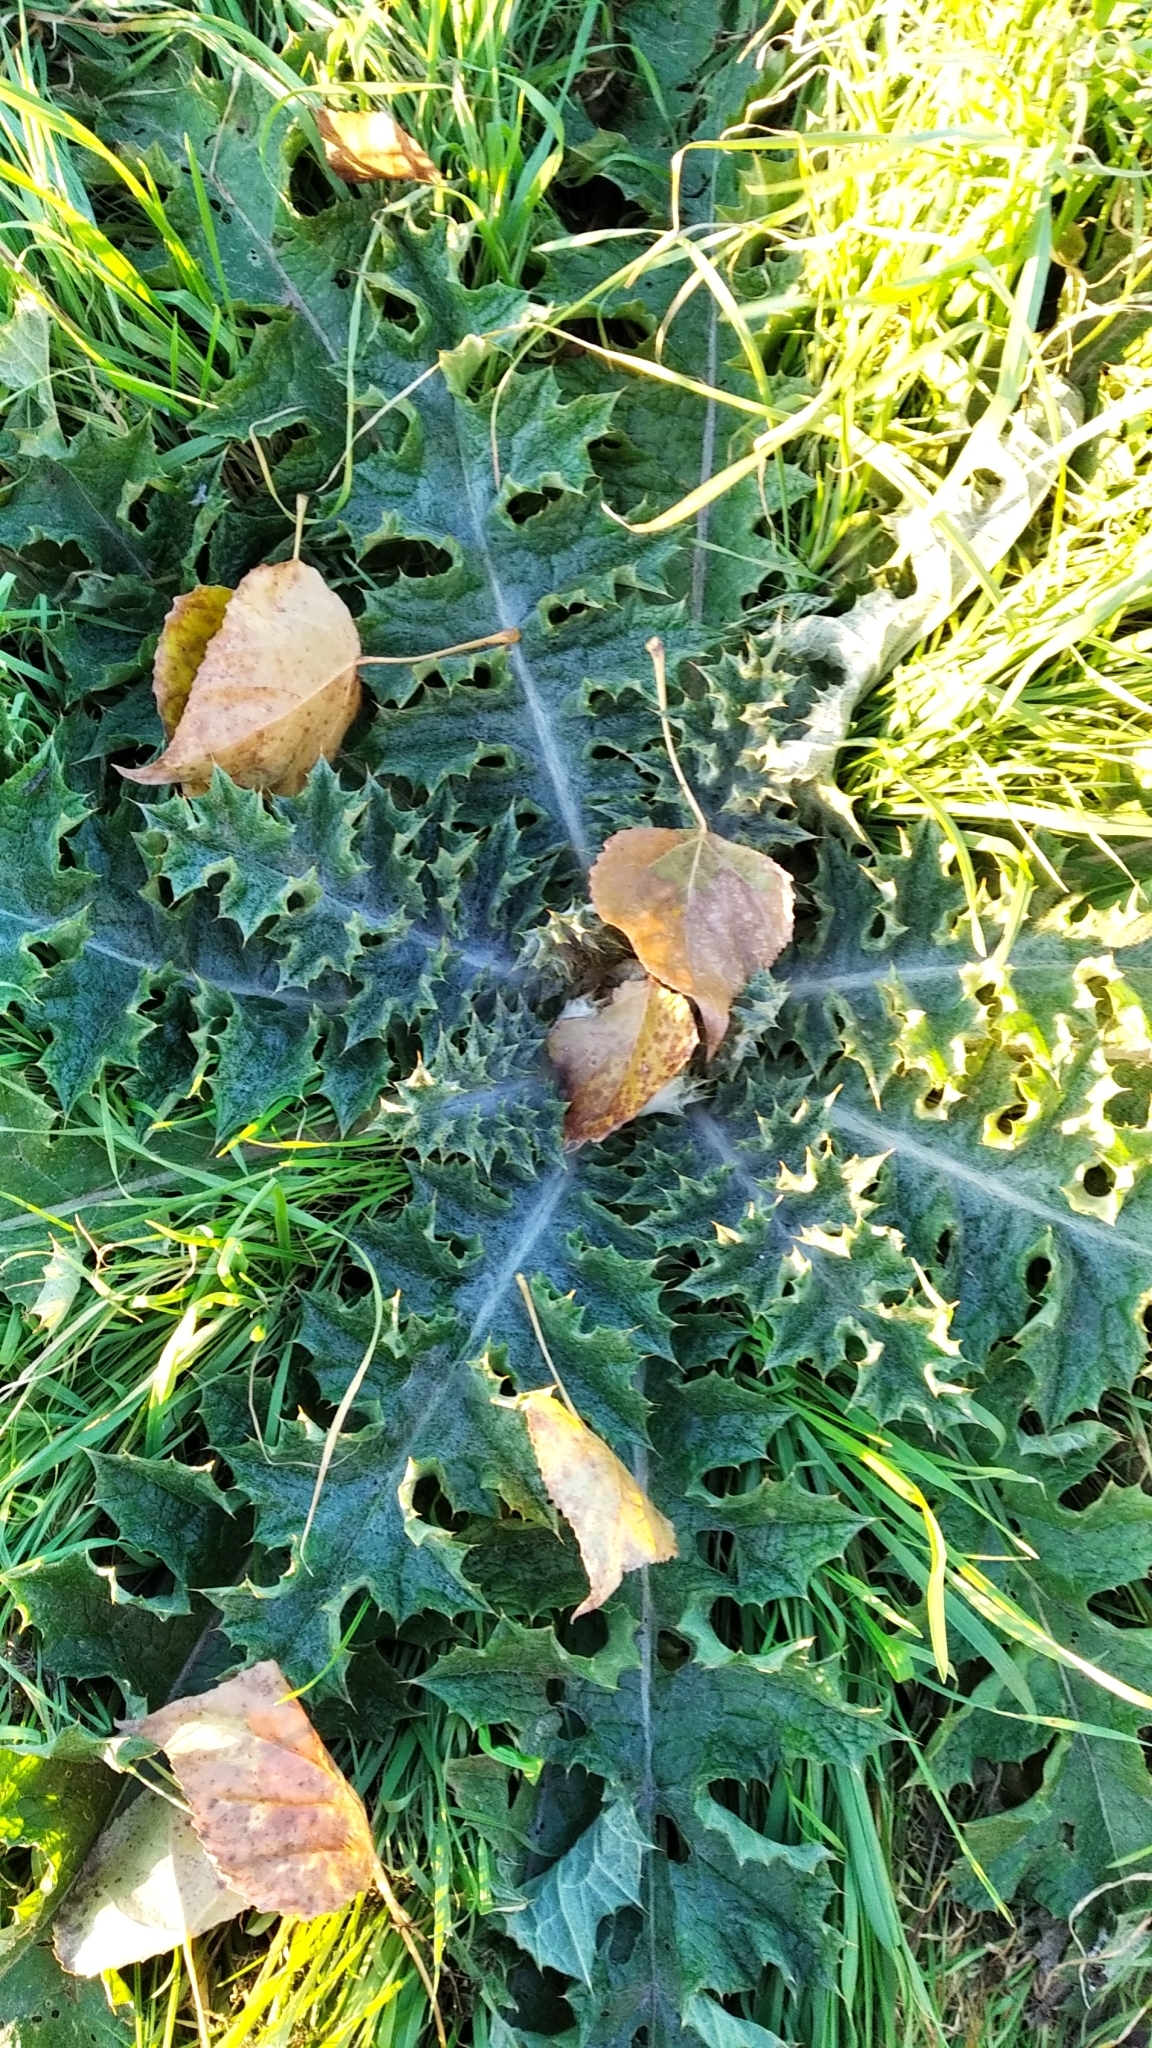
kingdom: Plantae
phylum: Tracheophyta
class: Magnoliopsida
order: Asterales
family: Asteraceae
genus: Cirsium
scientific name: Cirsium vulgare
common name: Bull thistle
